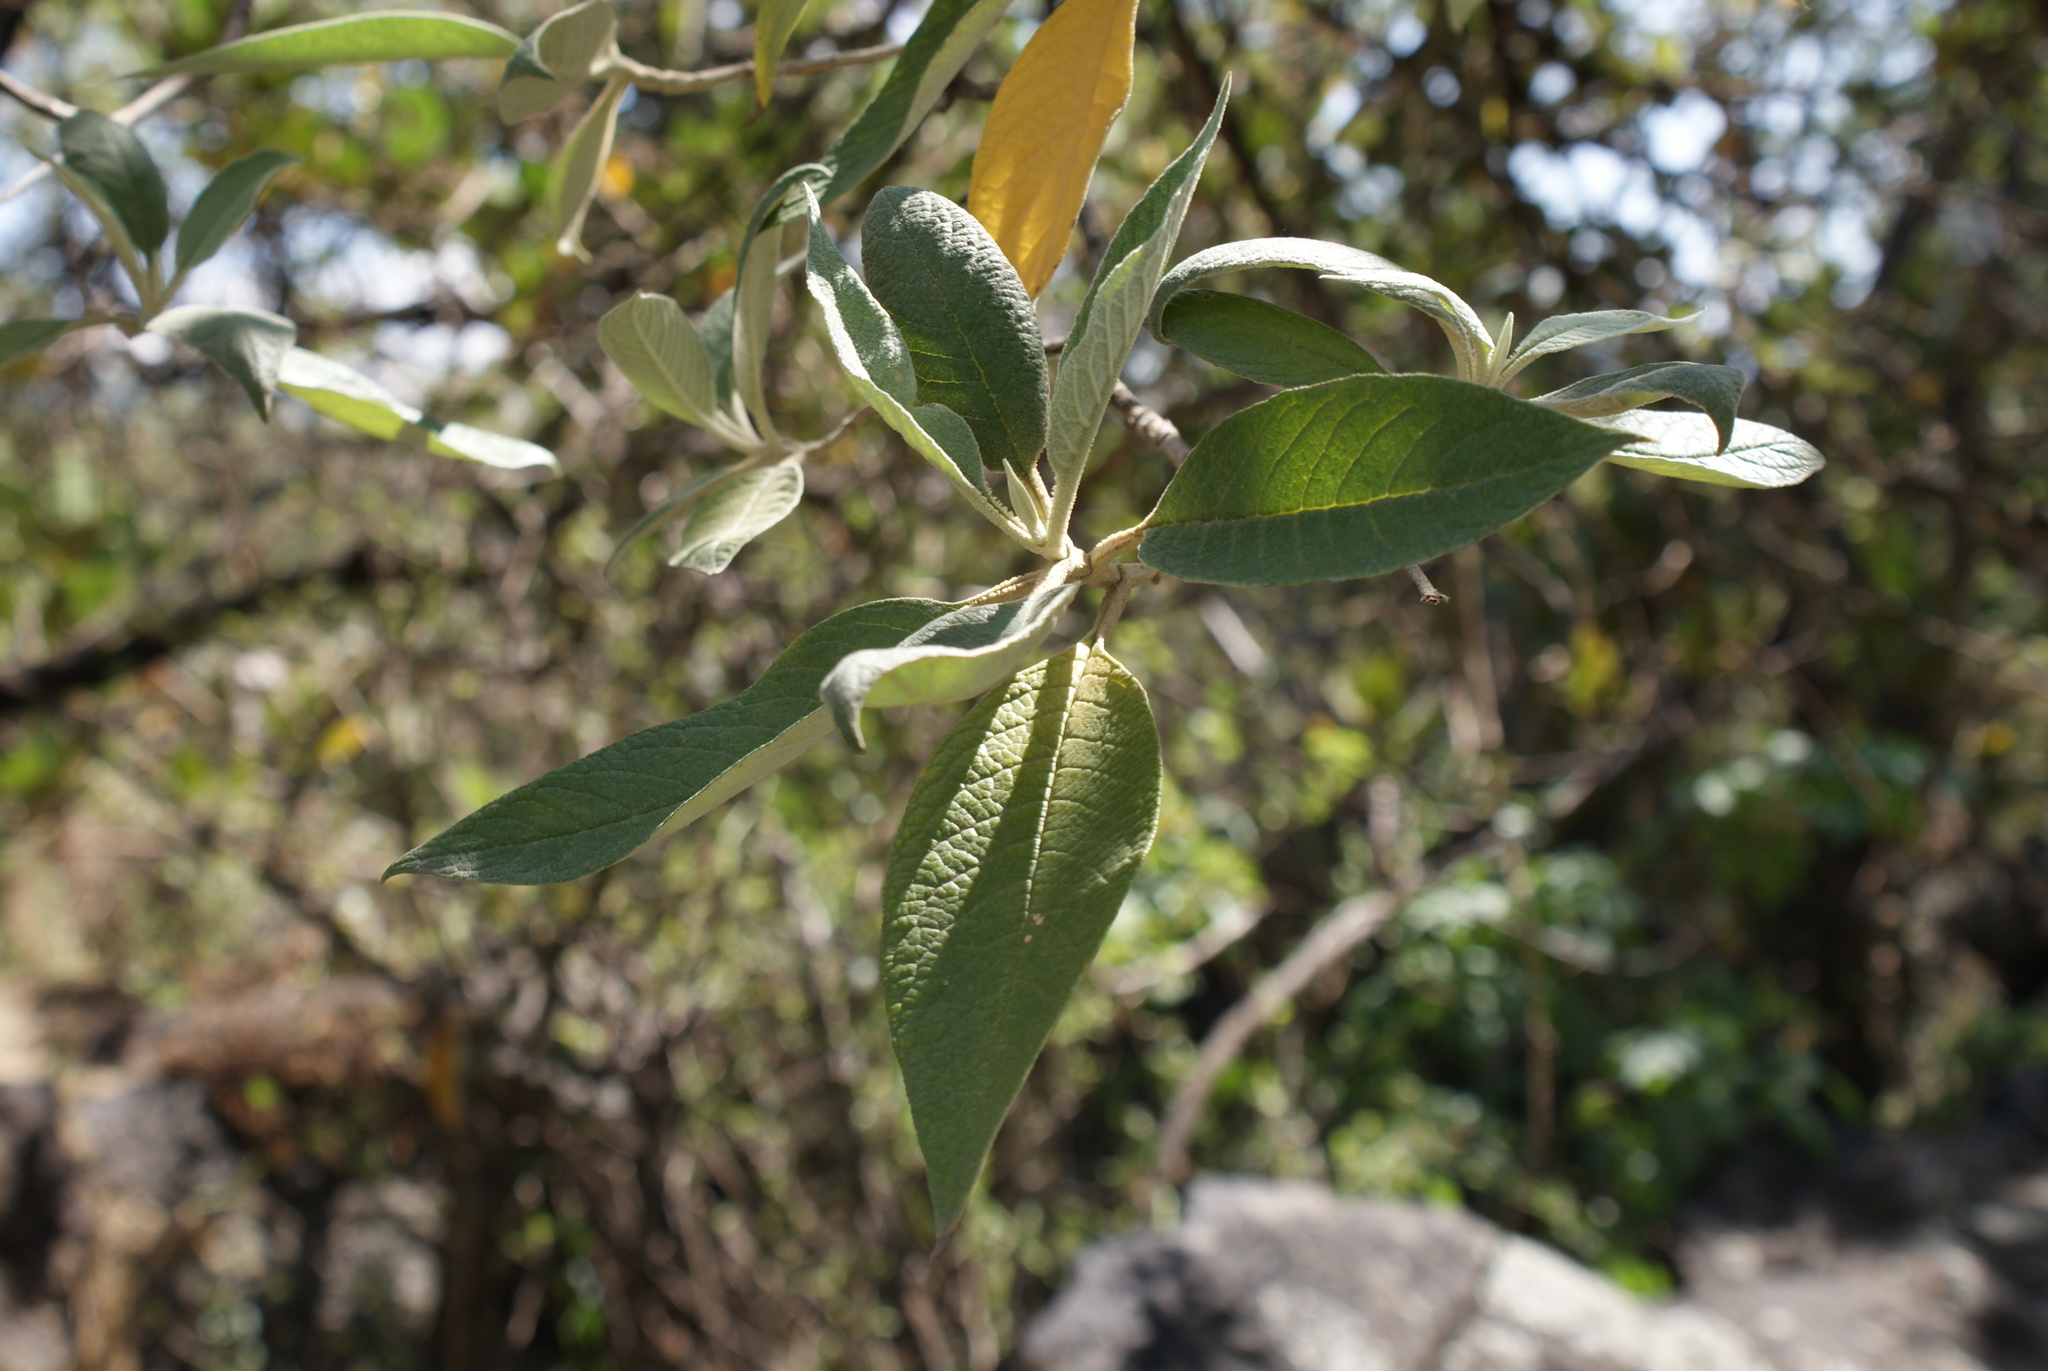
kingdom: Plantae
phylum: Tracheophyta
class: Magnoliopsida
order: Lamiales
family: Scrophulariaceae
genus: Buddleja
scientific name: Buddleja cordata
